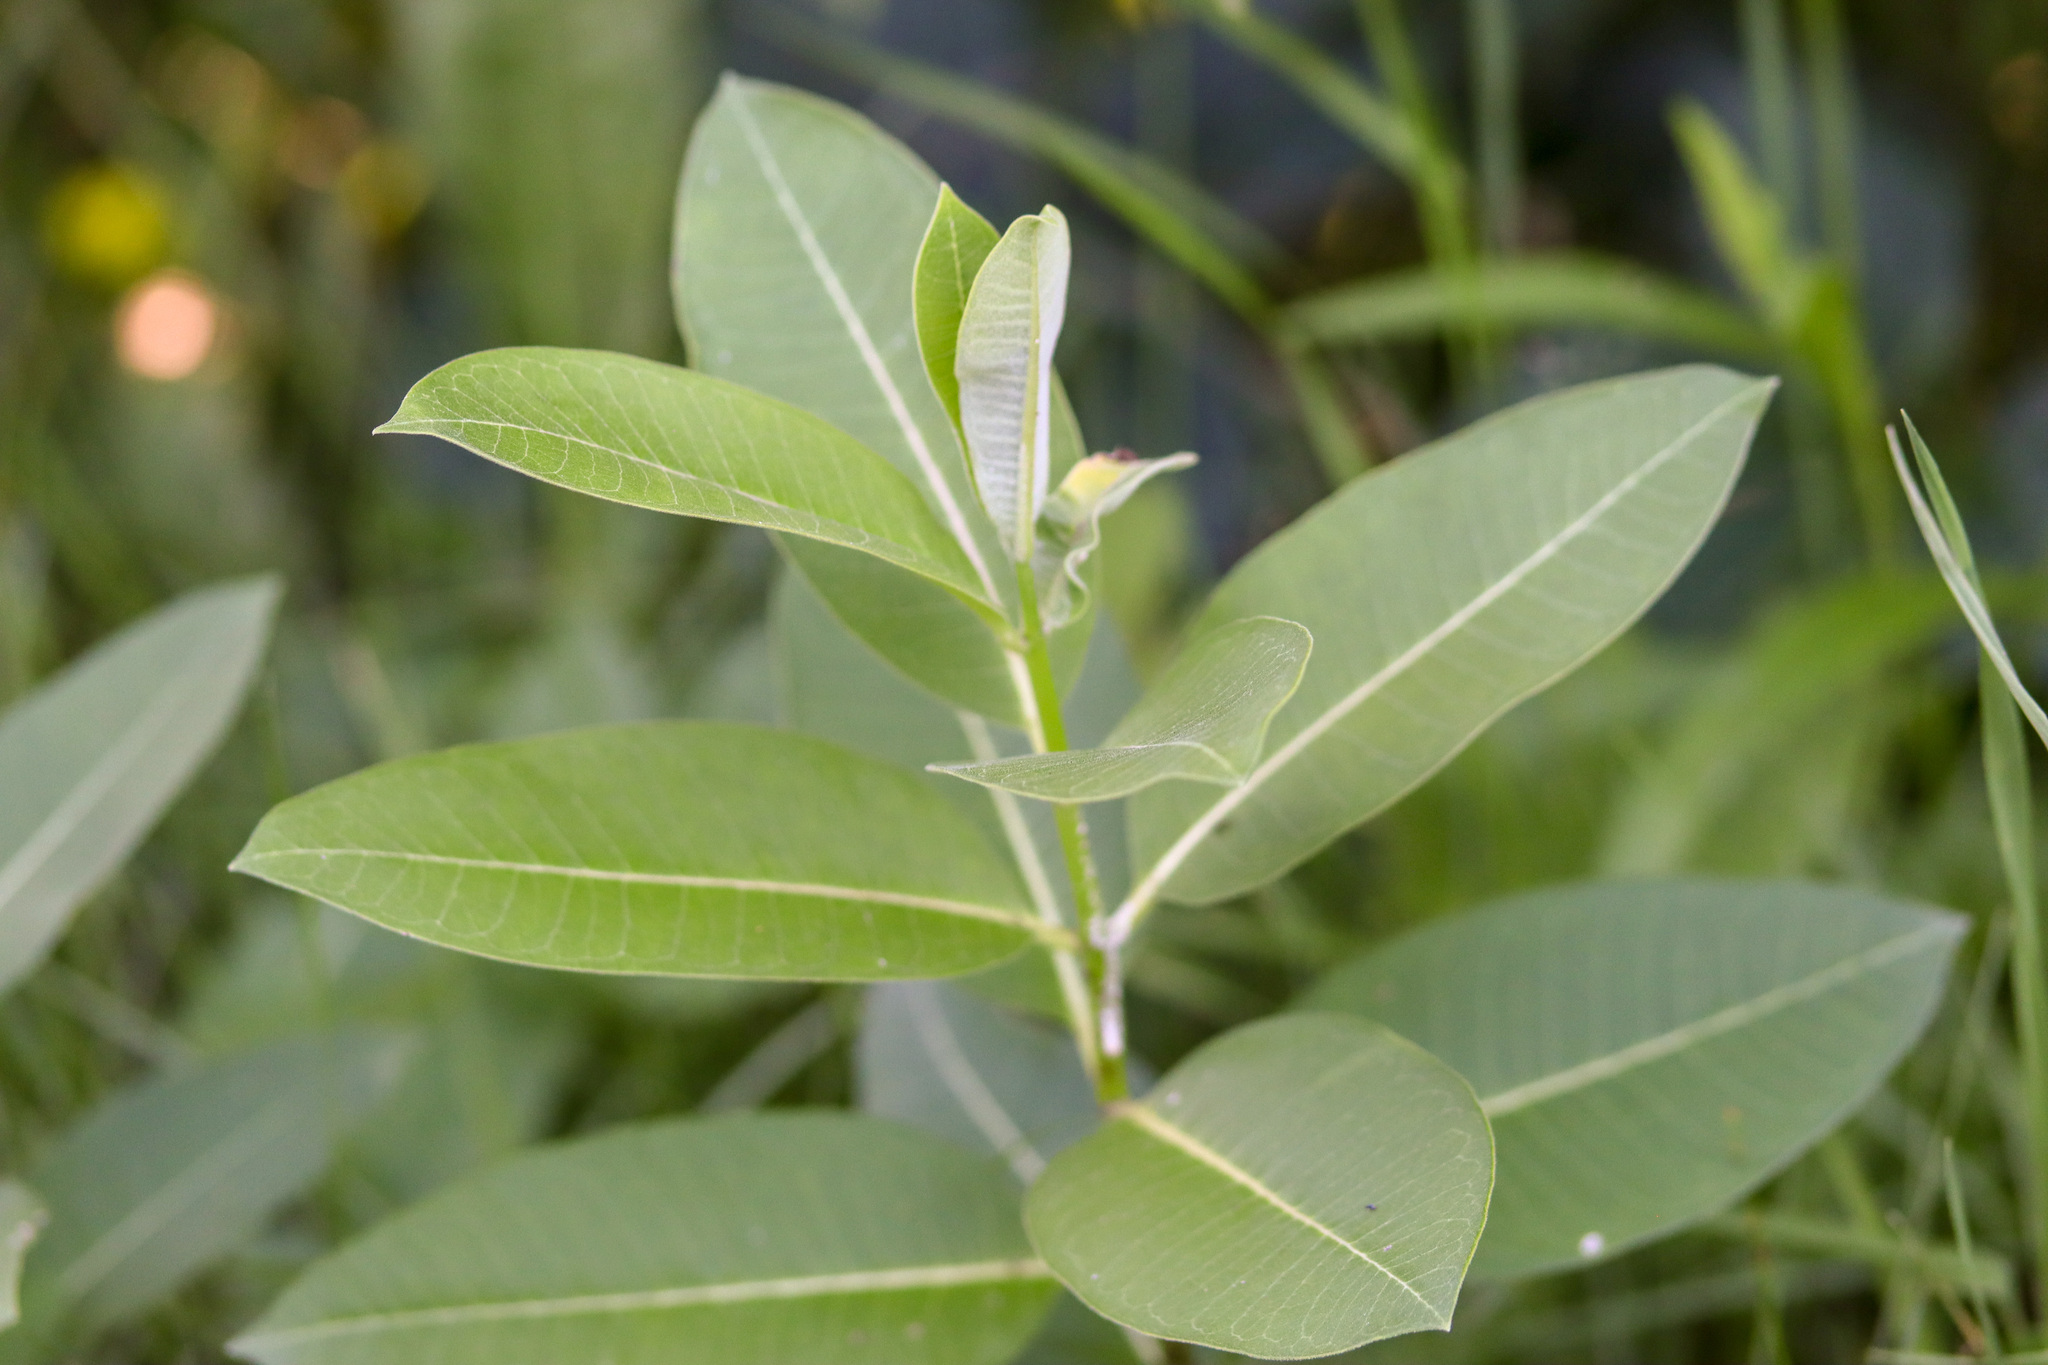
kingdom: Plantae
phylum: Tracheophyta
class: Magnoliopsida
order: Gentianales
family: Apocynaceae
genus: Asclepias
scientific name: Asclepias syriaca
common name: Common milkweed
